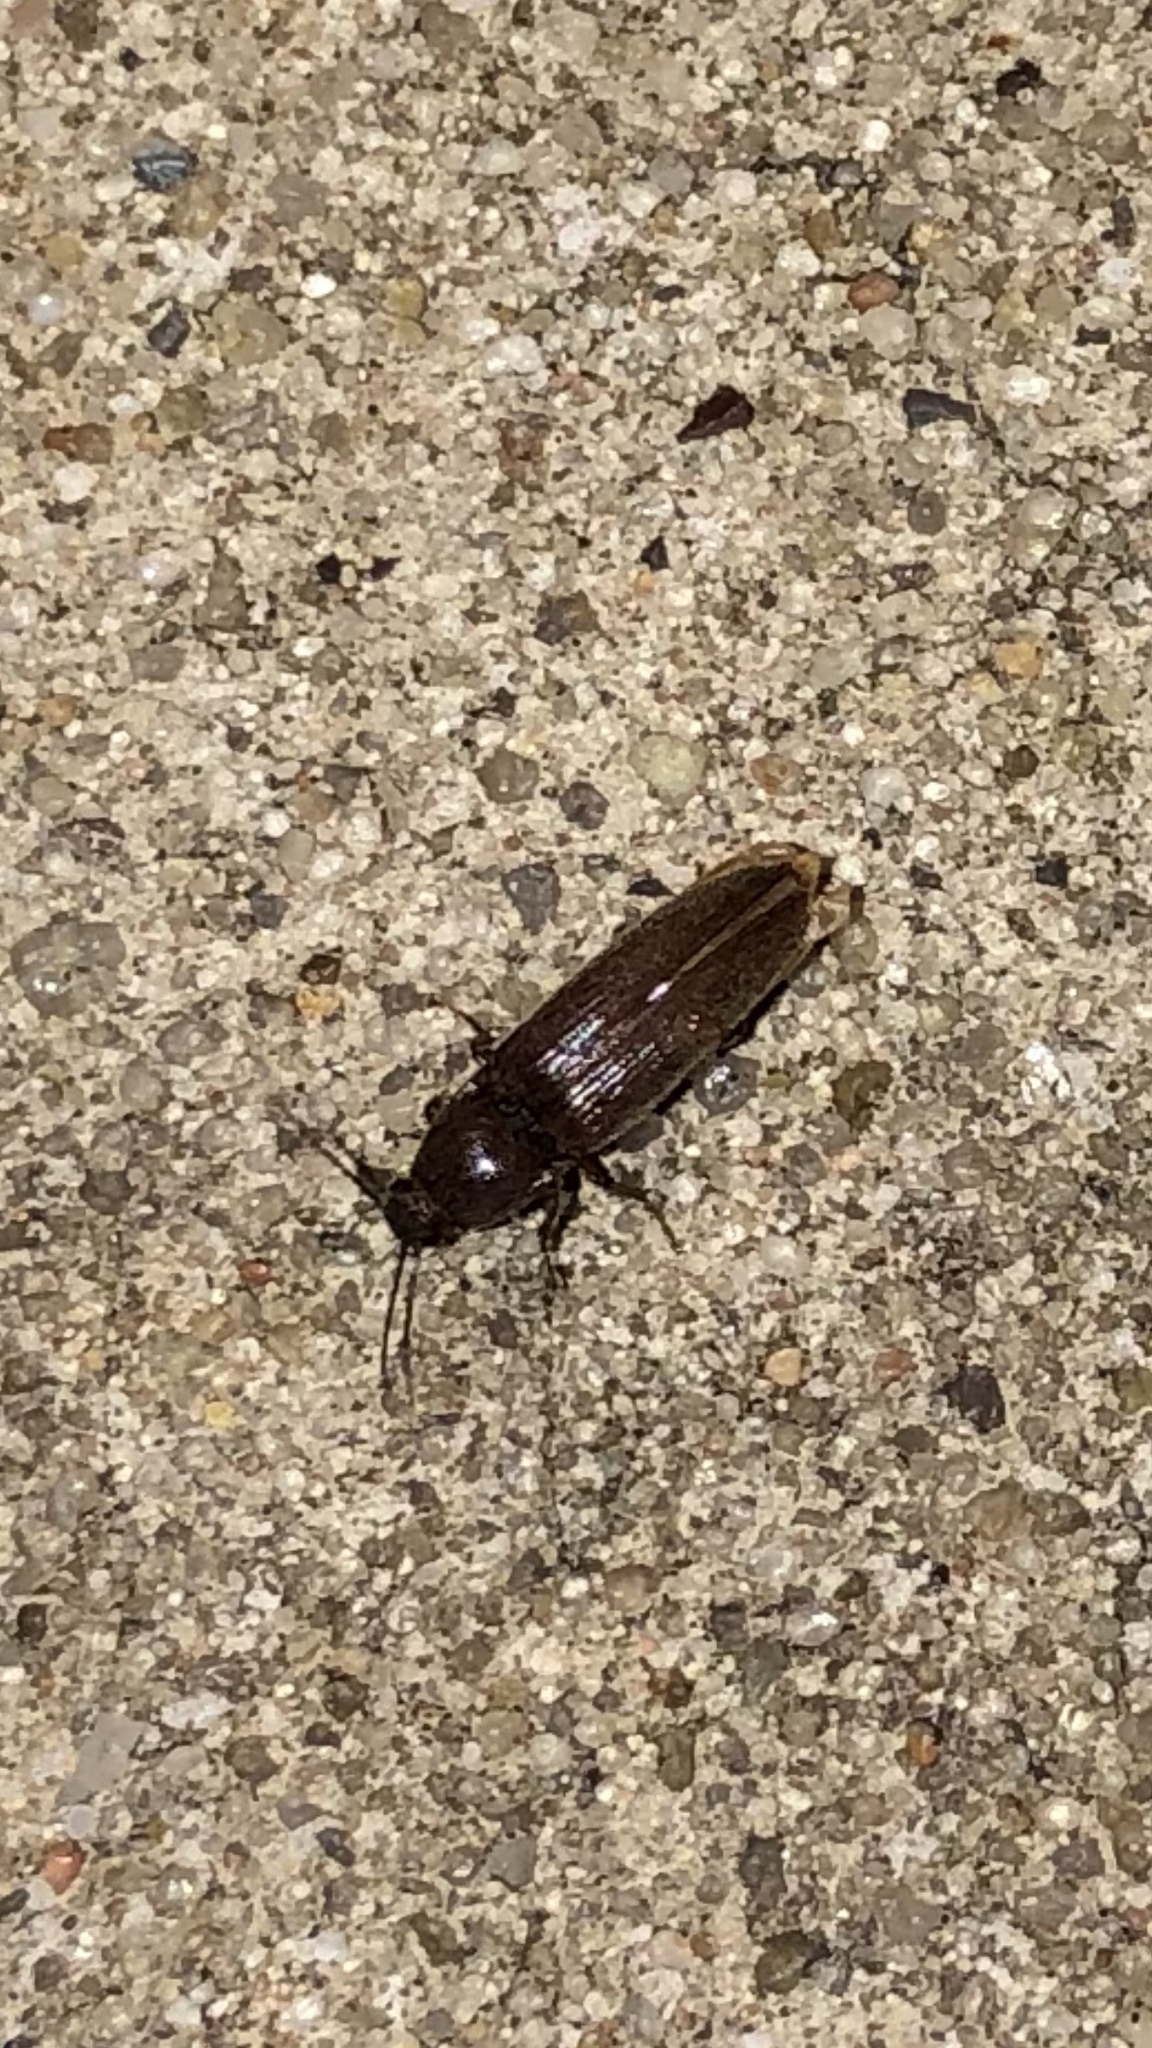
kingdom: Animalia
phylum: Arthropoda
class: Insecta
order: Coleoptera
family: Elateridae
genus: Melanotus
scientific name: Melanotus
